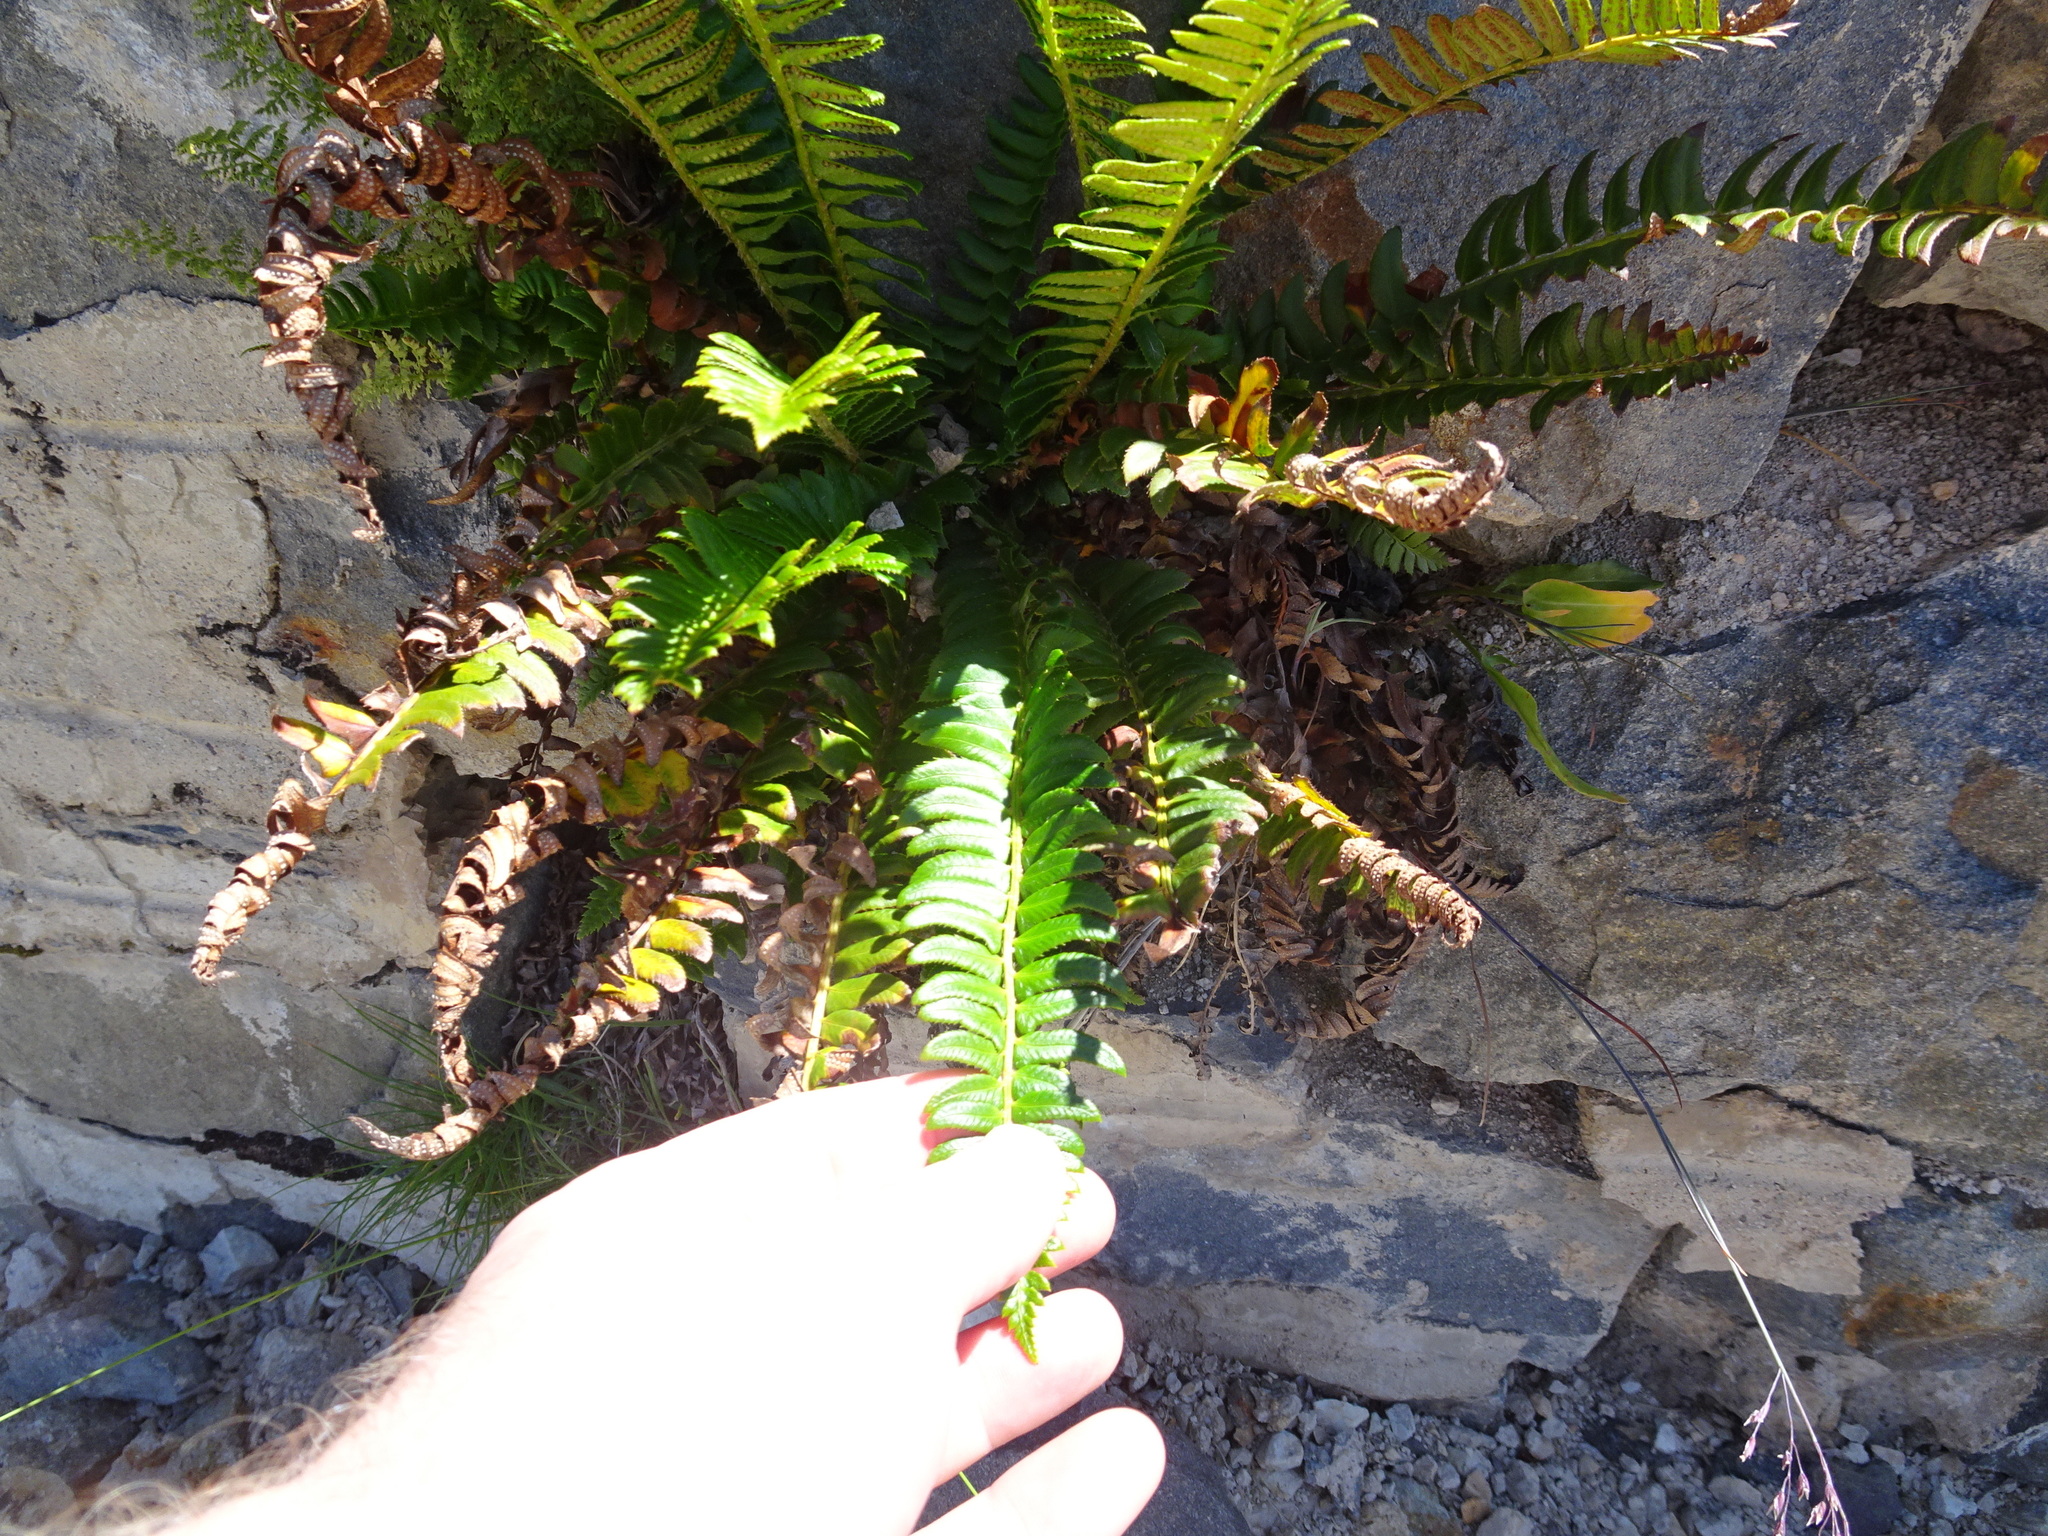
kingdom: Plantae
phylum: Tracheophyta
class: Polypodiopsida
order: Polypodiales
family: Dryopteridaceae
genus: Polystichum
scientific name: Polystichum lonchitis
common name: Holly fern
